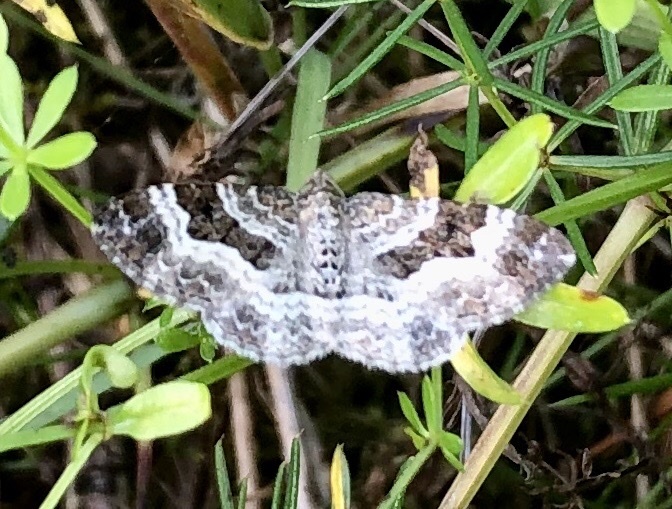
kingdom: Animalia
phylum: Arthropoda
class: Insecta
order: Lepidoptera
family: Geometridae
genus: Epirrhoe
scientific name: Epirrhoe alternata
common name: Common carpet
